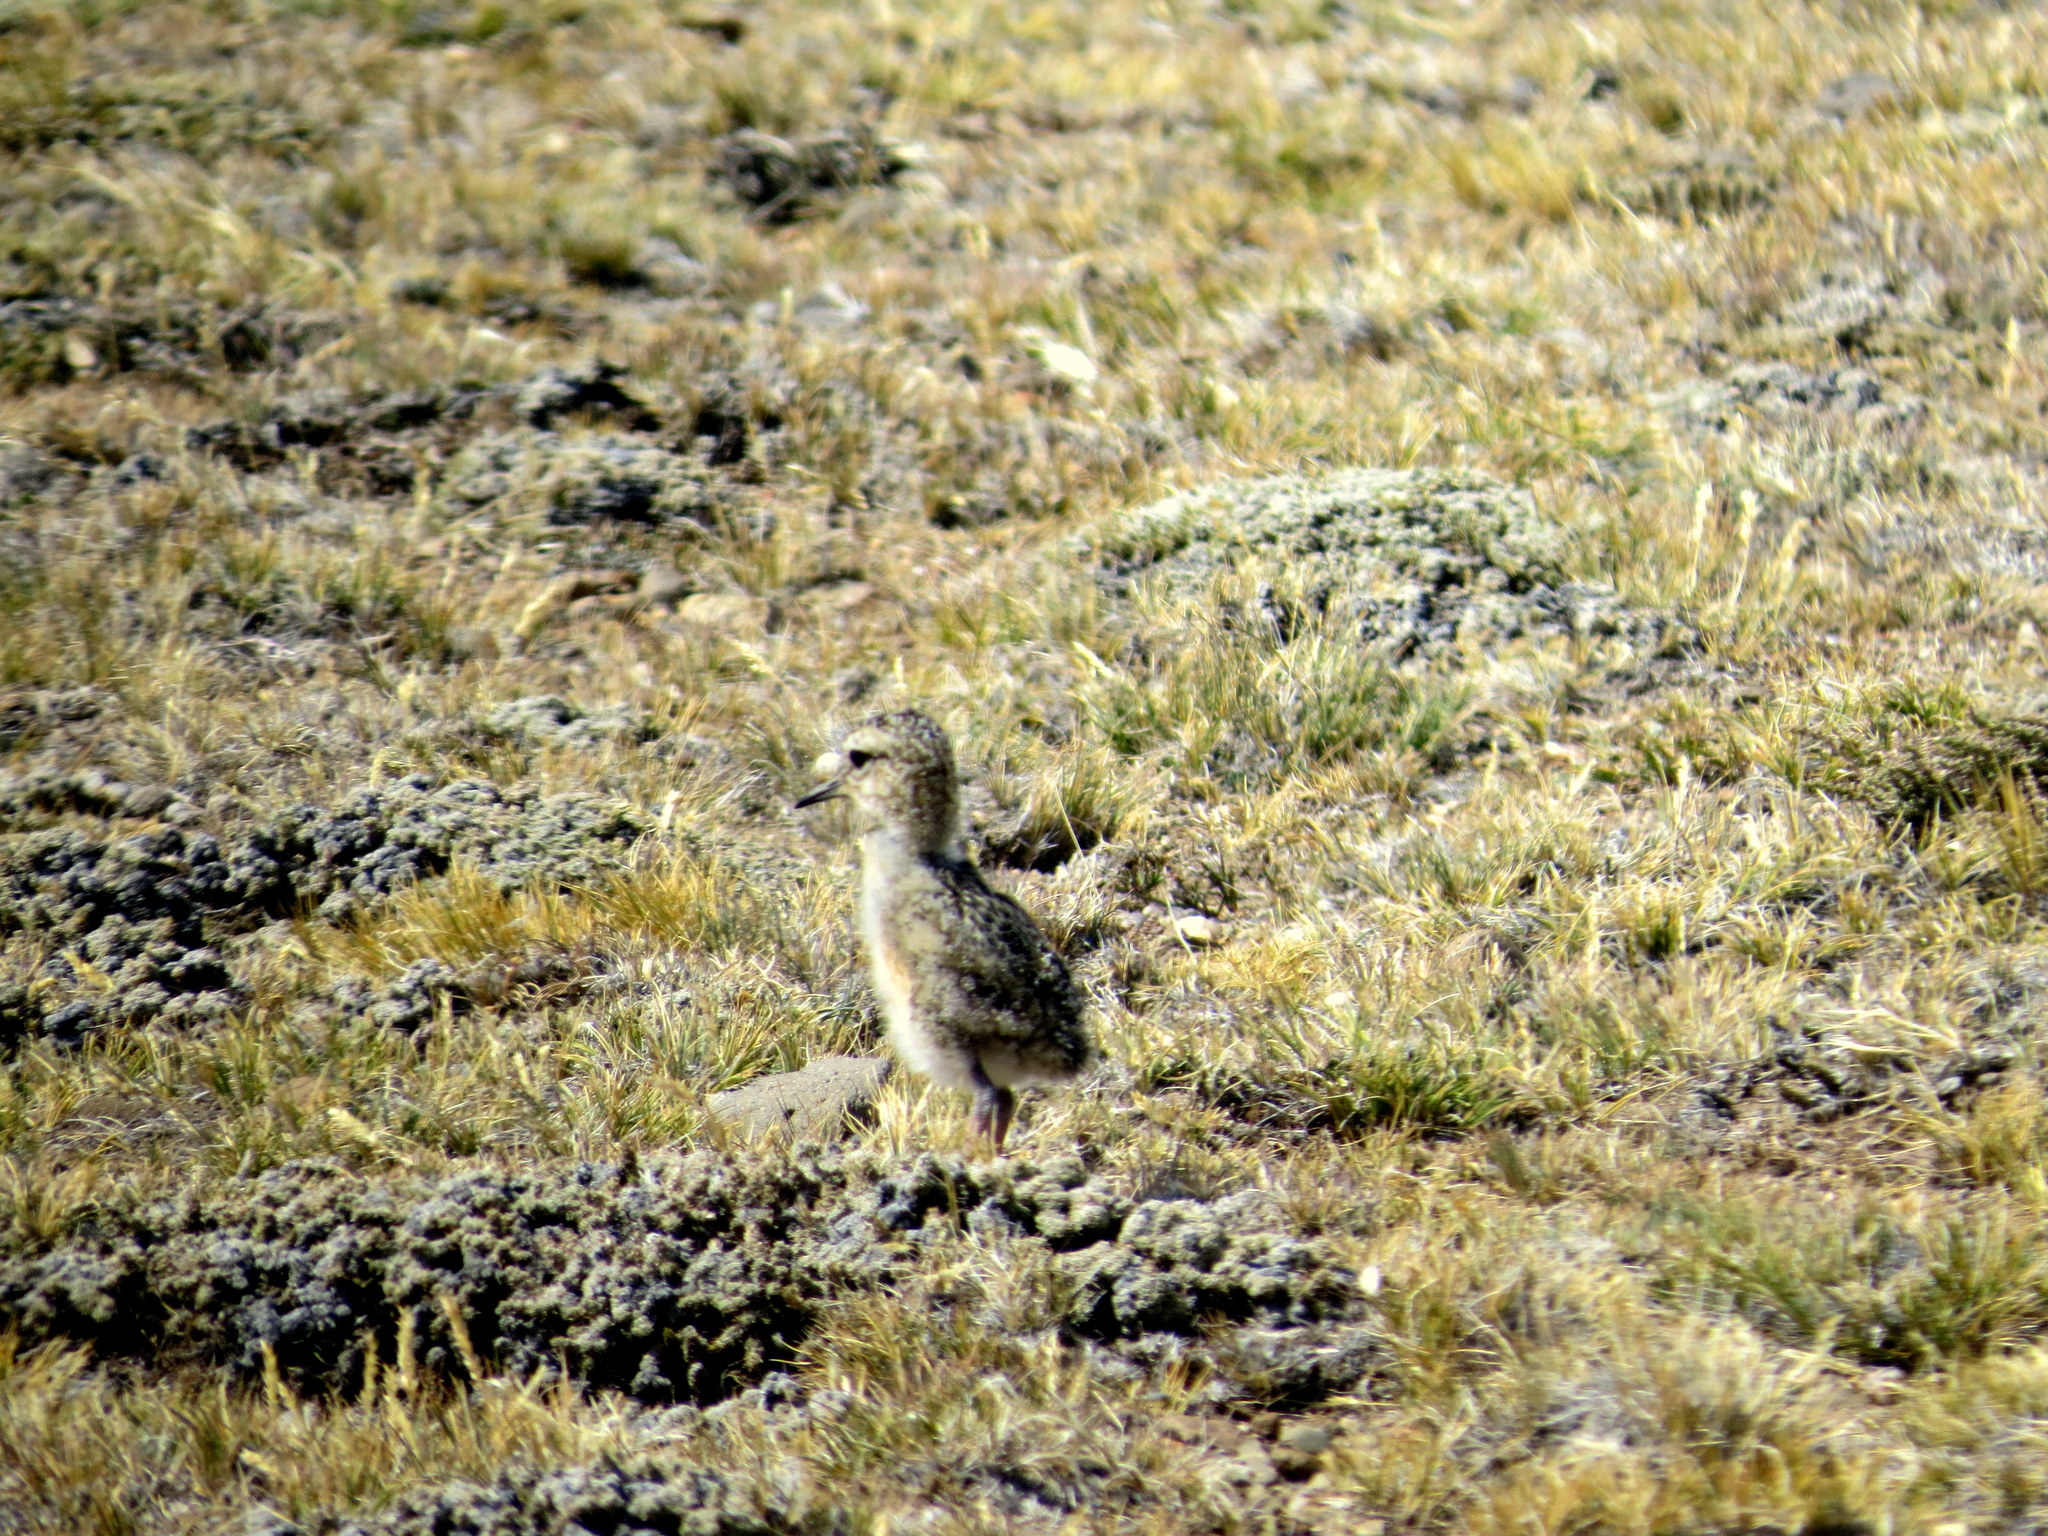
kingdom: Animalia
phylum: Chordata
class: Aves
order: Charadriiformes
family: Charadriidae
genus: Oreopholus
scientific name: Oreopholus ruficollis
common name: Tawny-throated dotterel
